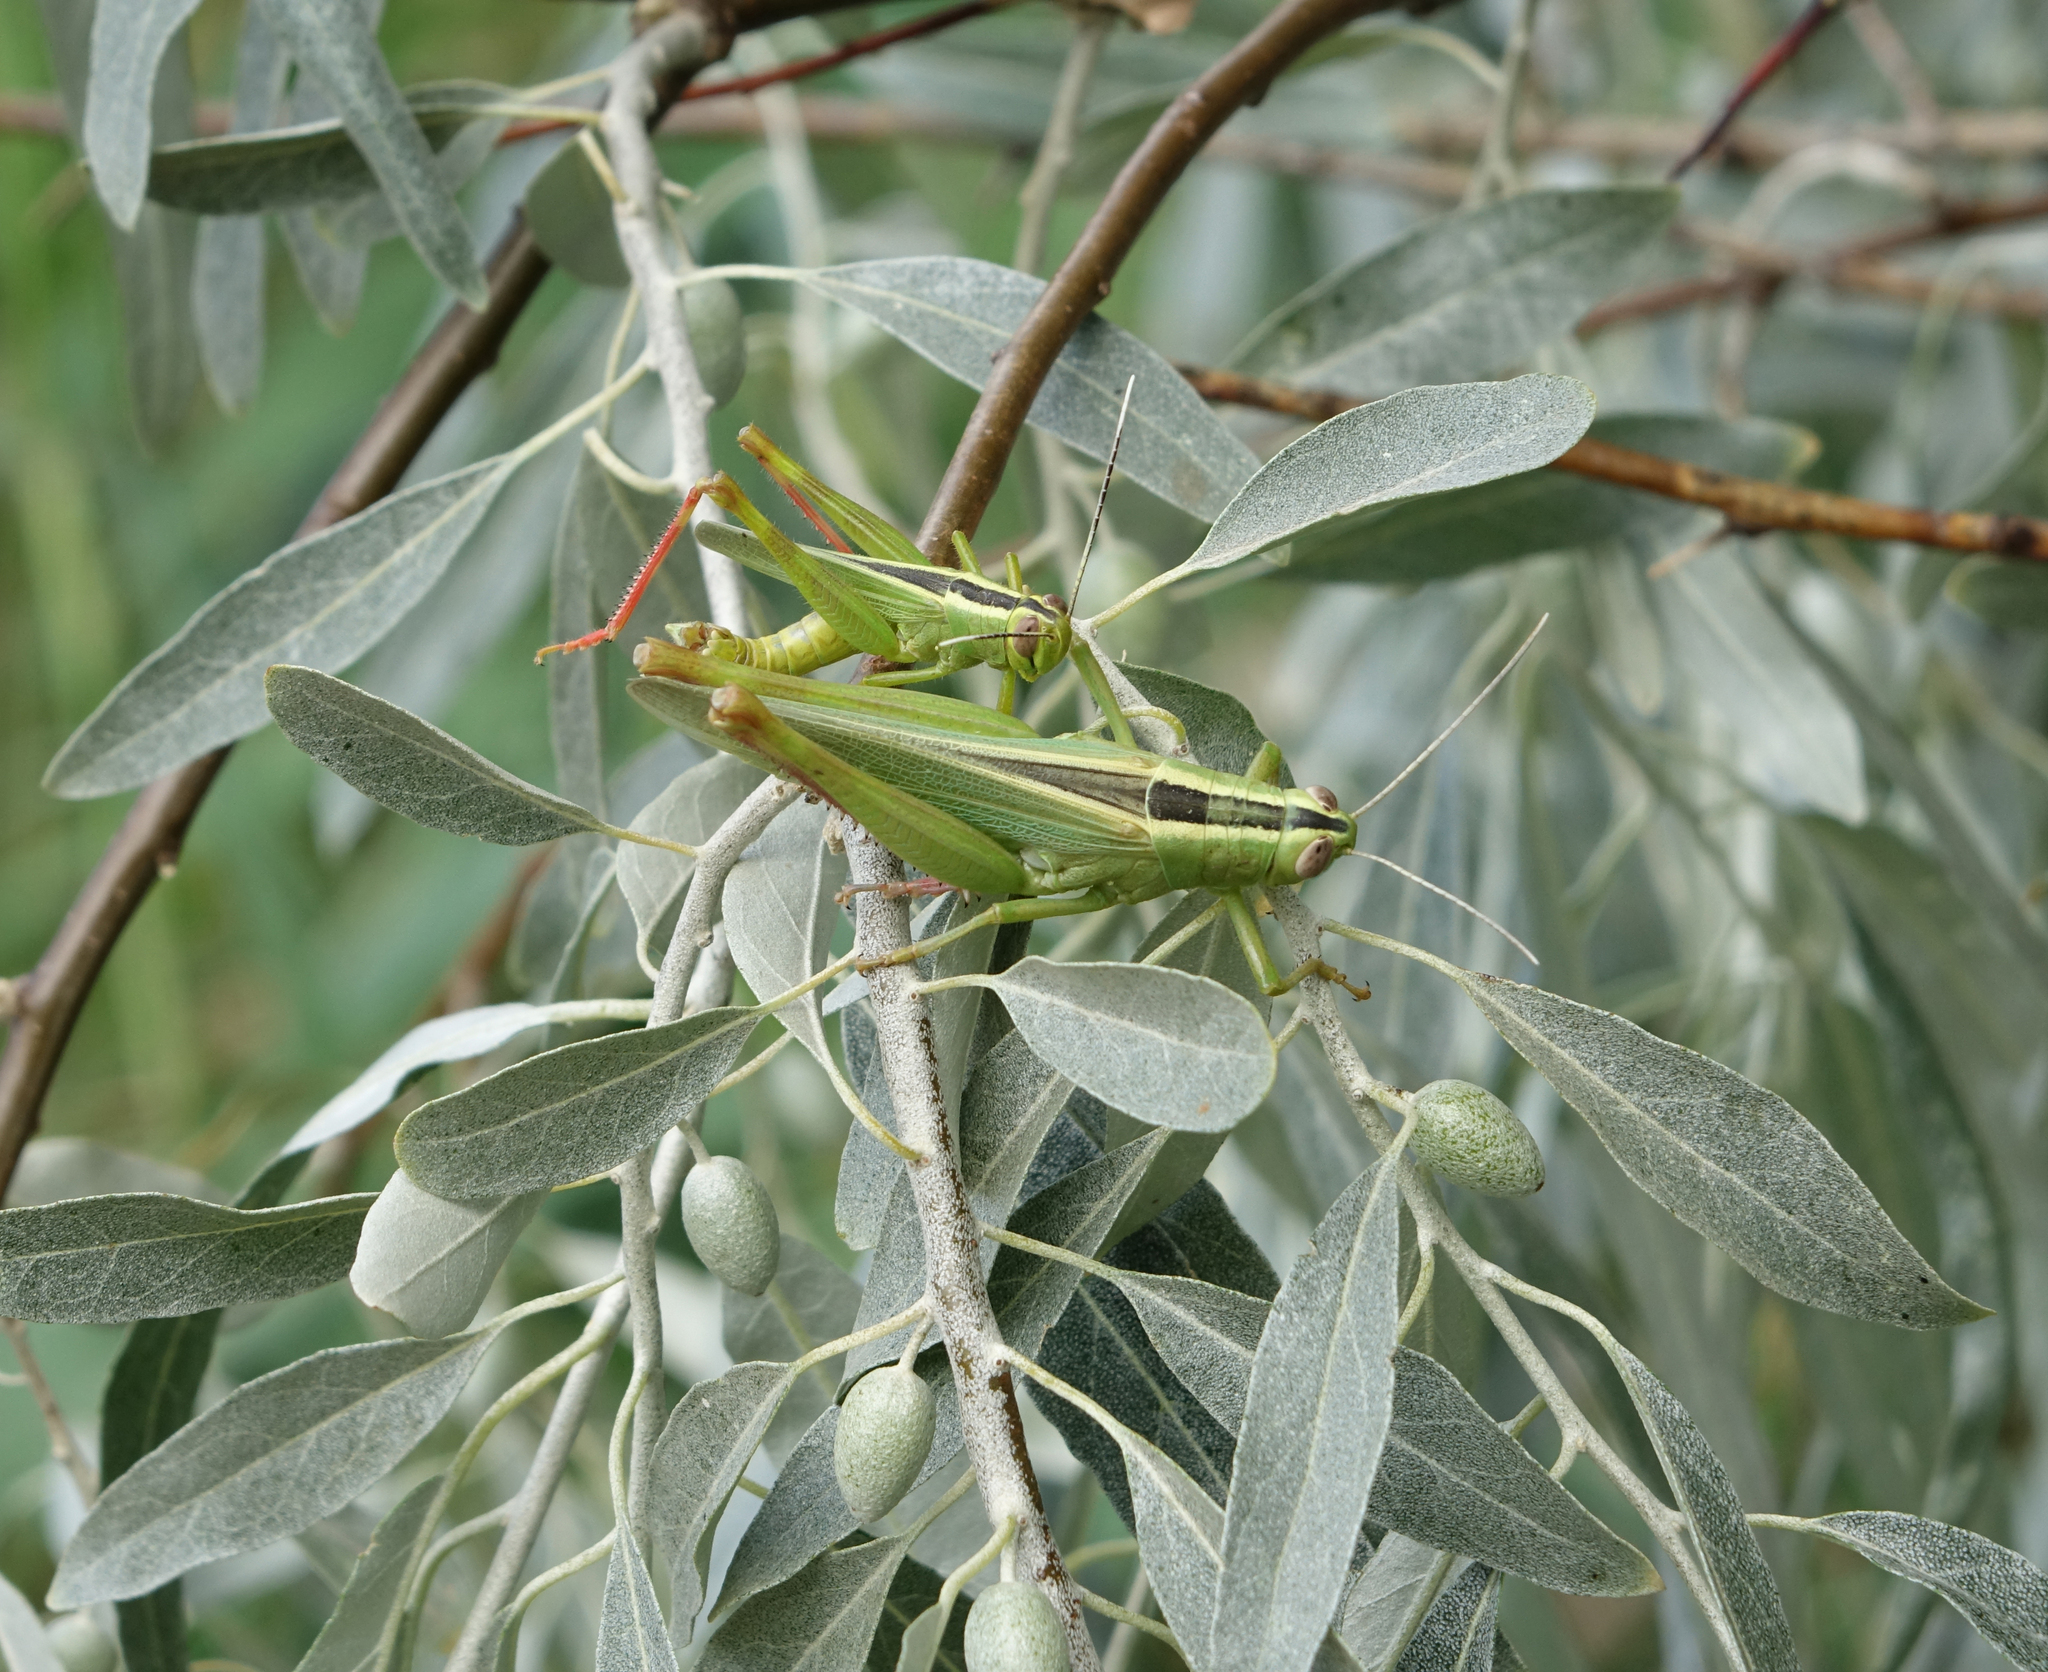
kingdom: Animalia
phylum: Arthropoda
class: Insecta
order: Orthoptera
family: Acrididae
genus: Heteracris
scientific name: Heteracris pterosticha
